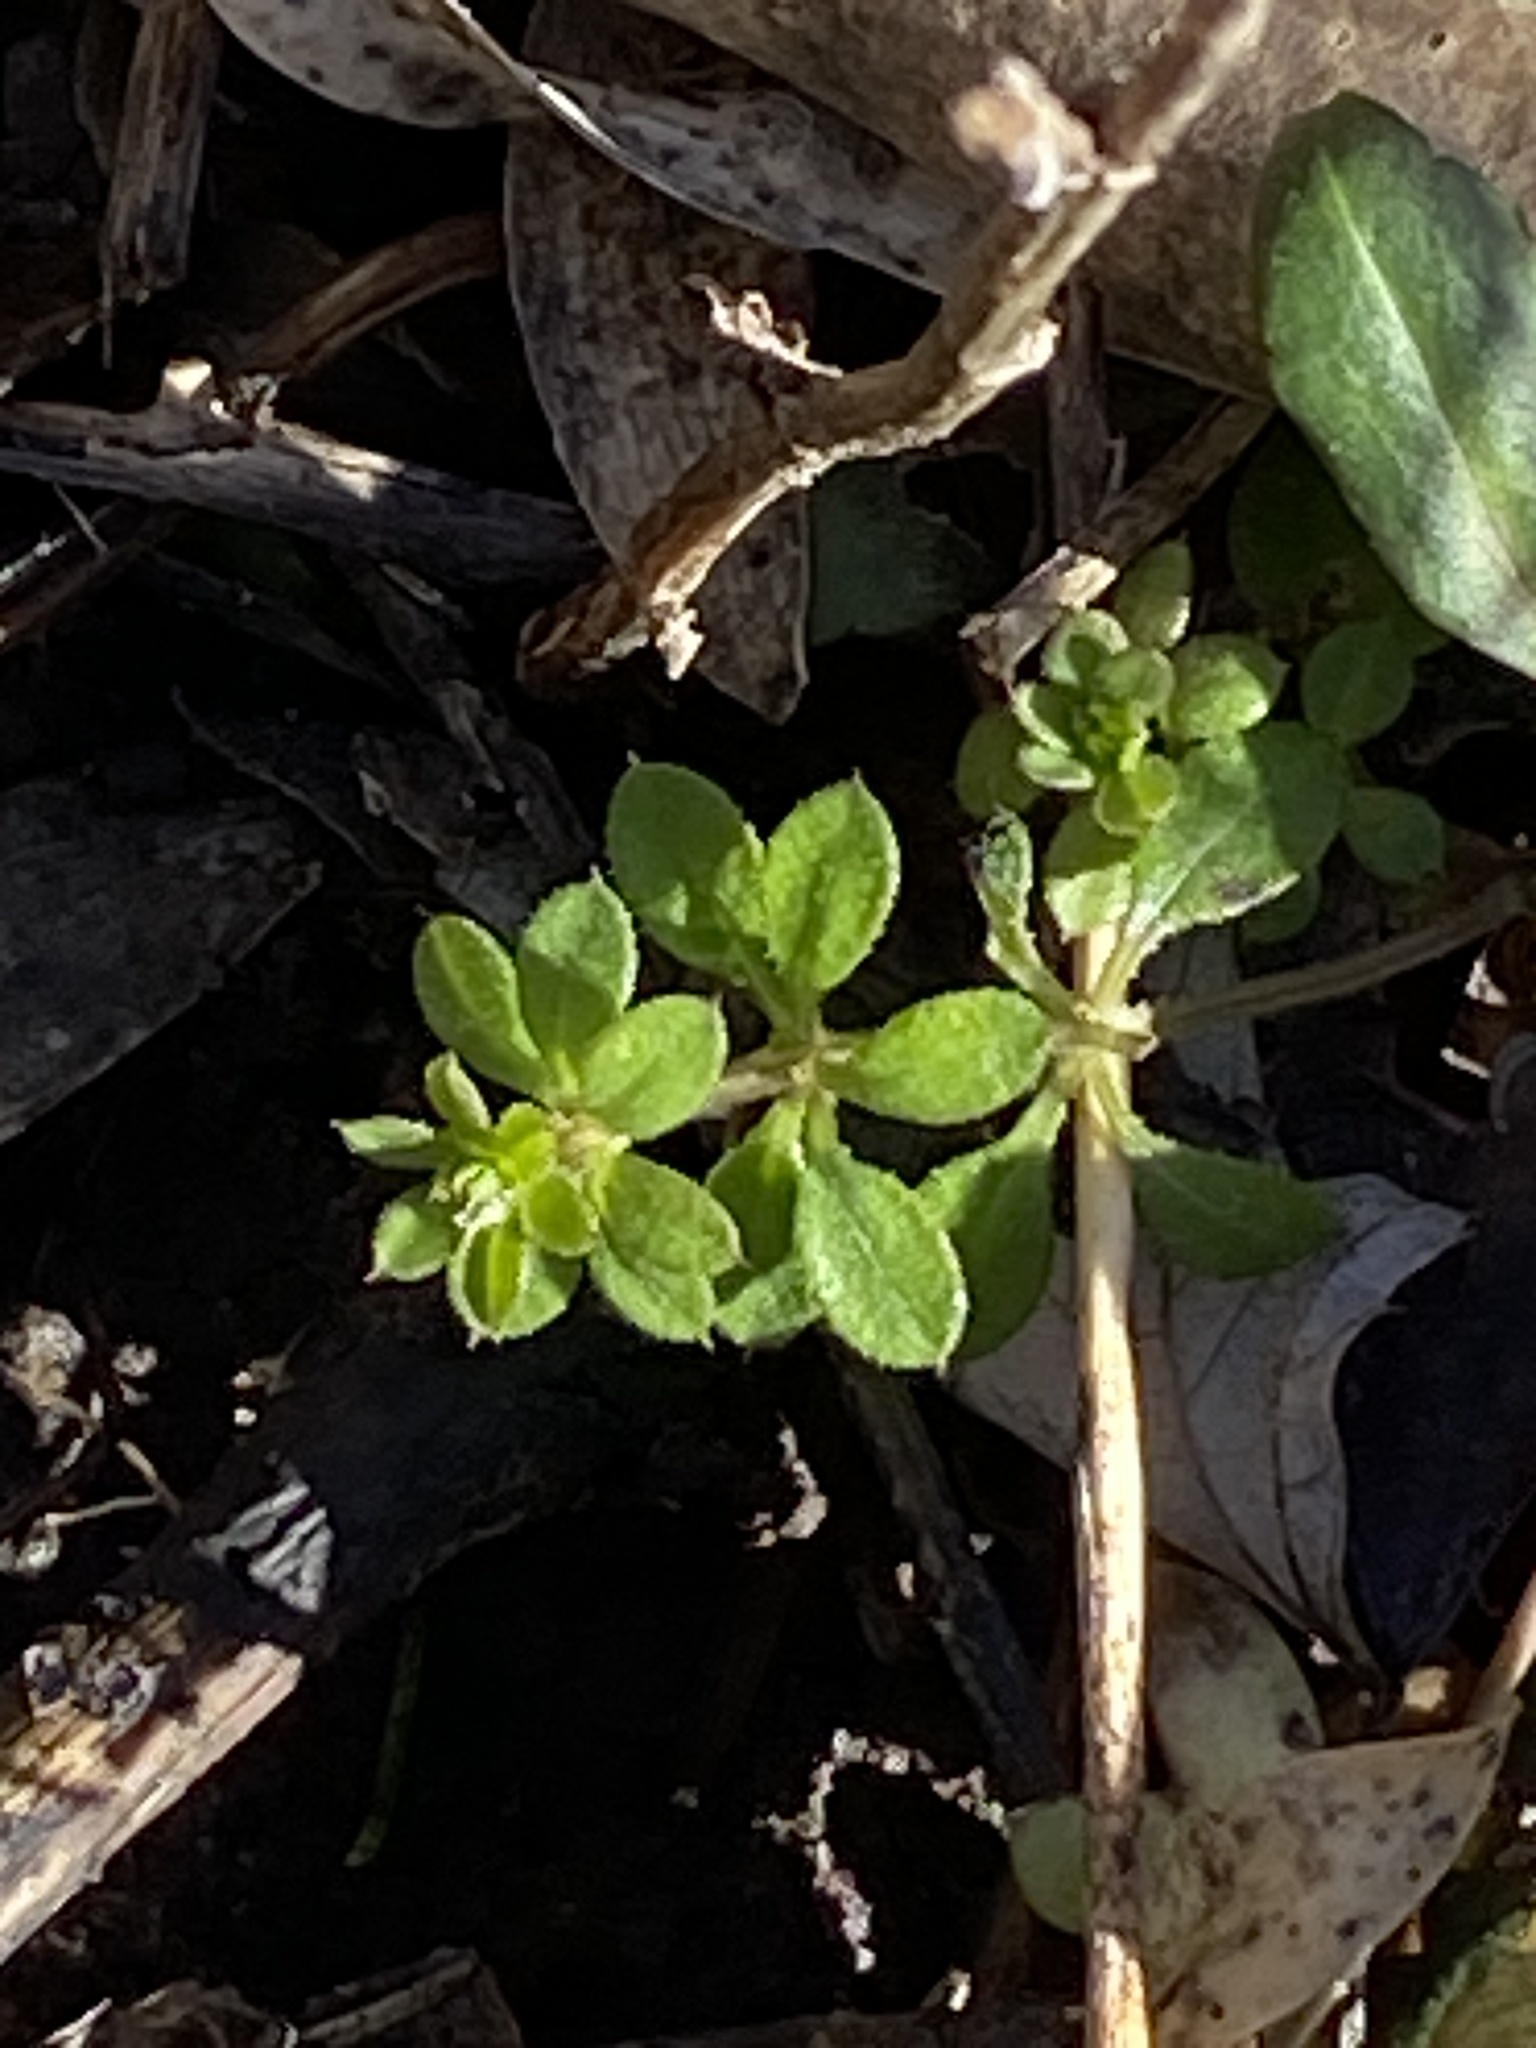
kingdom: Plantae
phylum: Tracheophyta
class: Magnoliopsida
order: Gentianales
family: Rubiaceae
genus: Galium
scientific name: Galium aparine
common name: Cleavers
